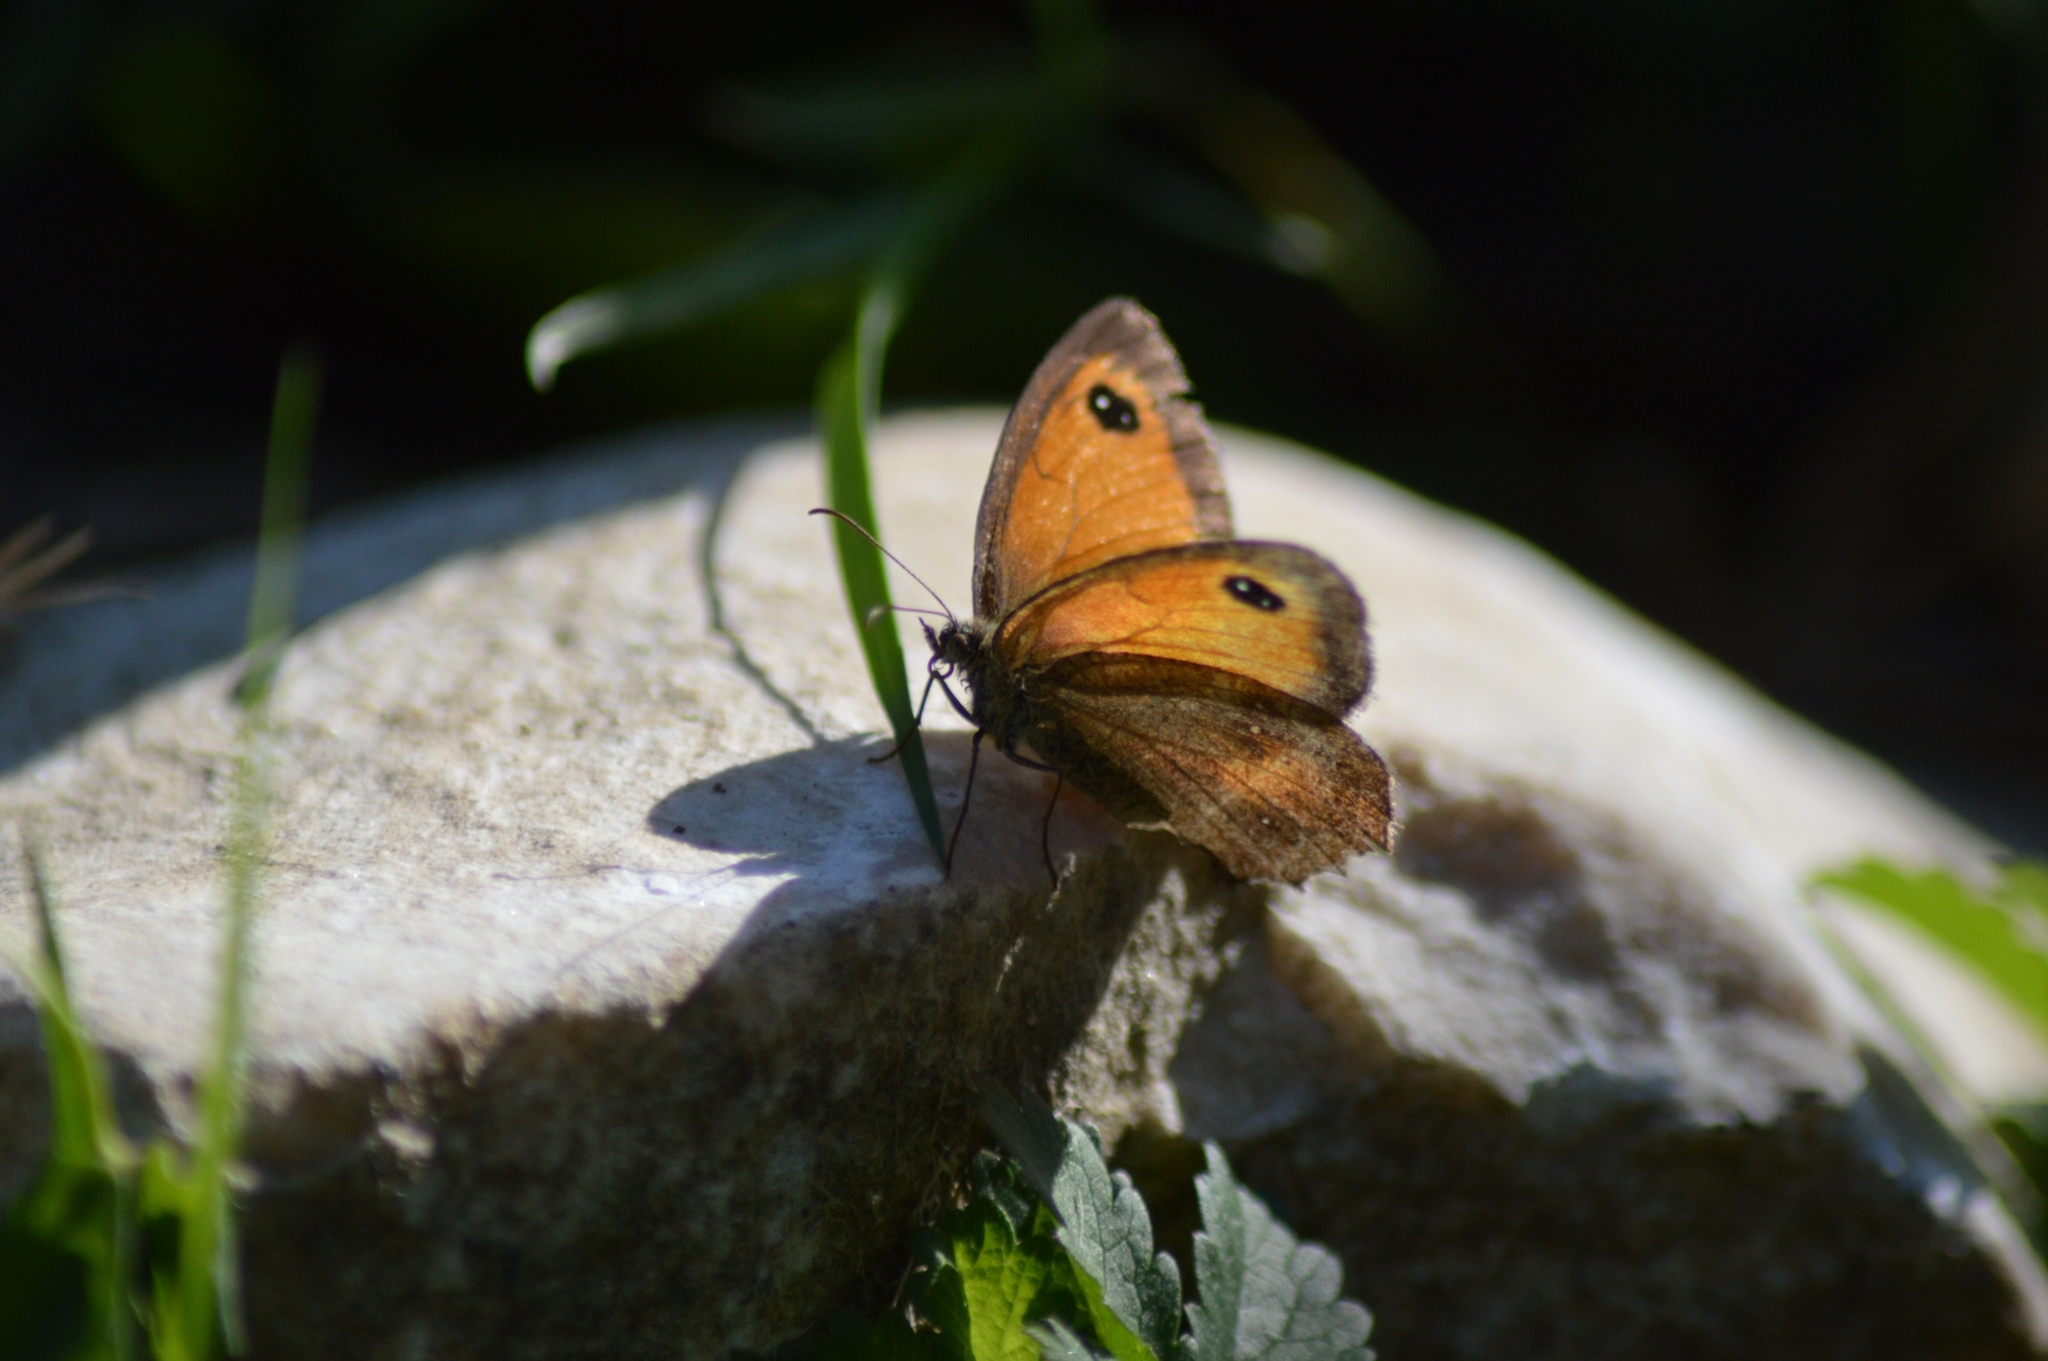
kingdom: Animalia
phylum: Arthropoda
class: Insecta
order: Lepidoptera
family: Nymphalidae
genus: Pyronia
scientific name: Pyronia tithonus
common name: Gatekeeper
